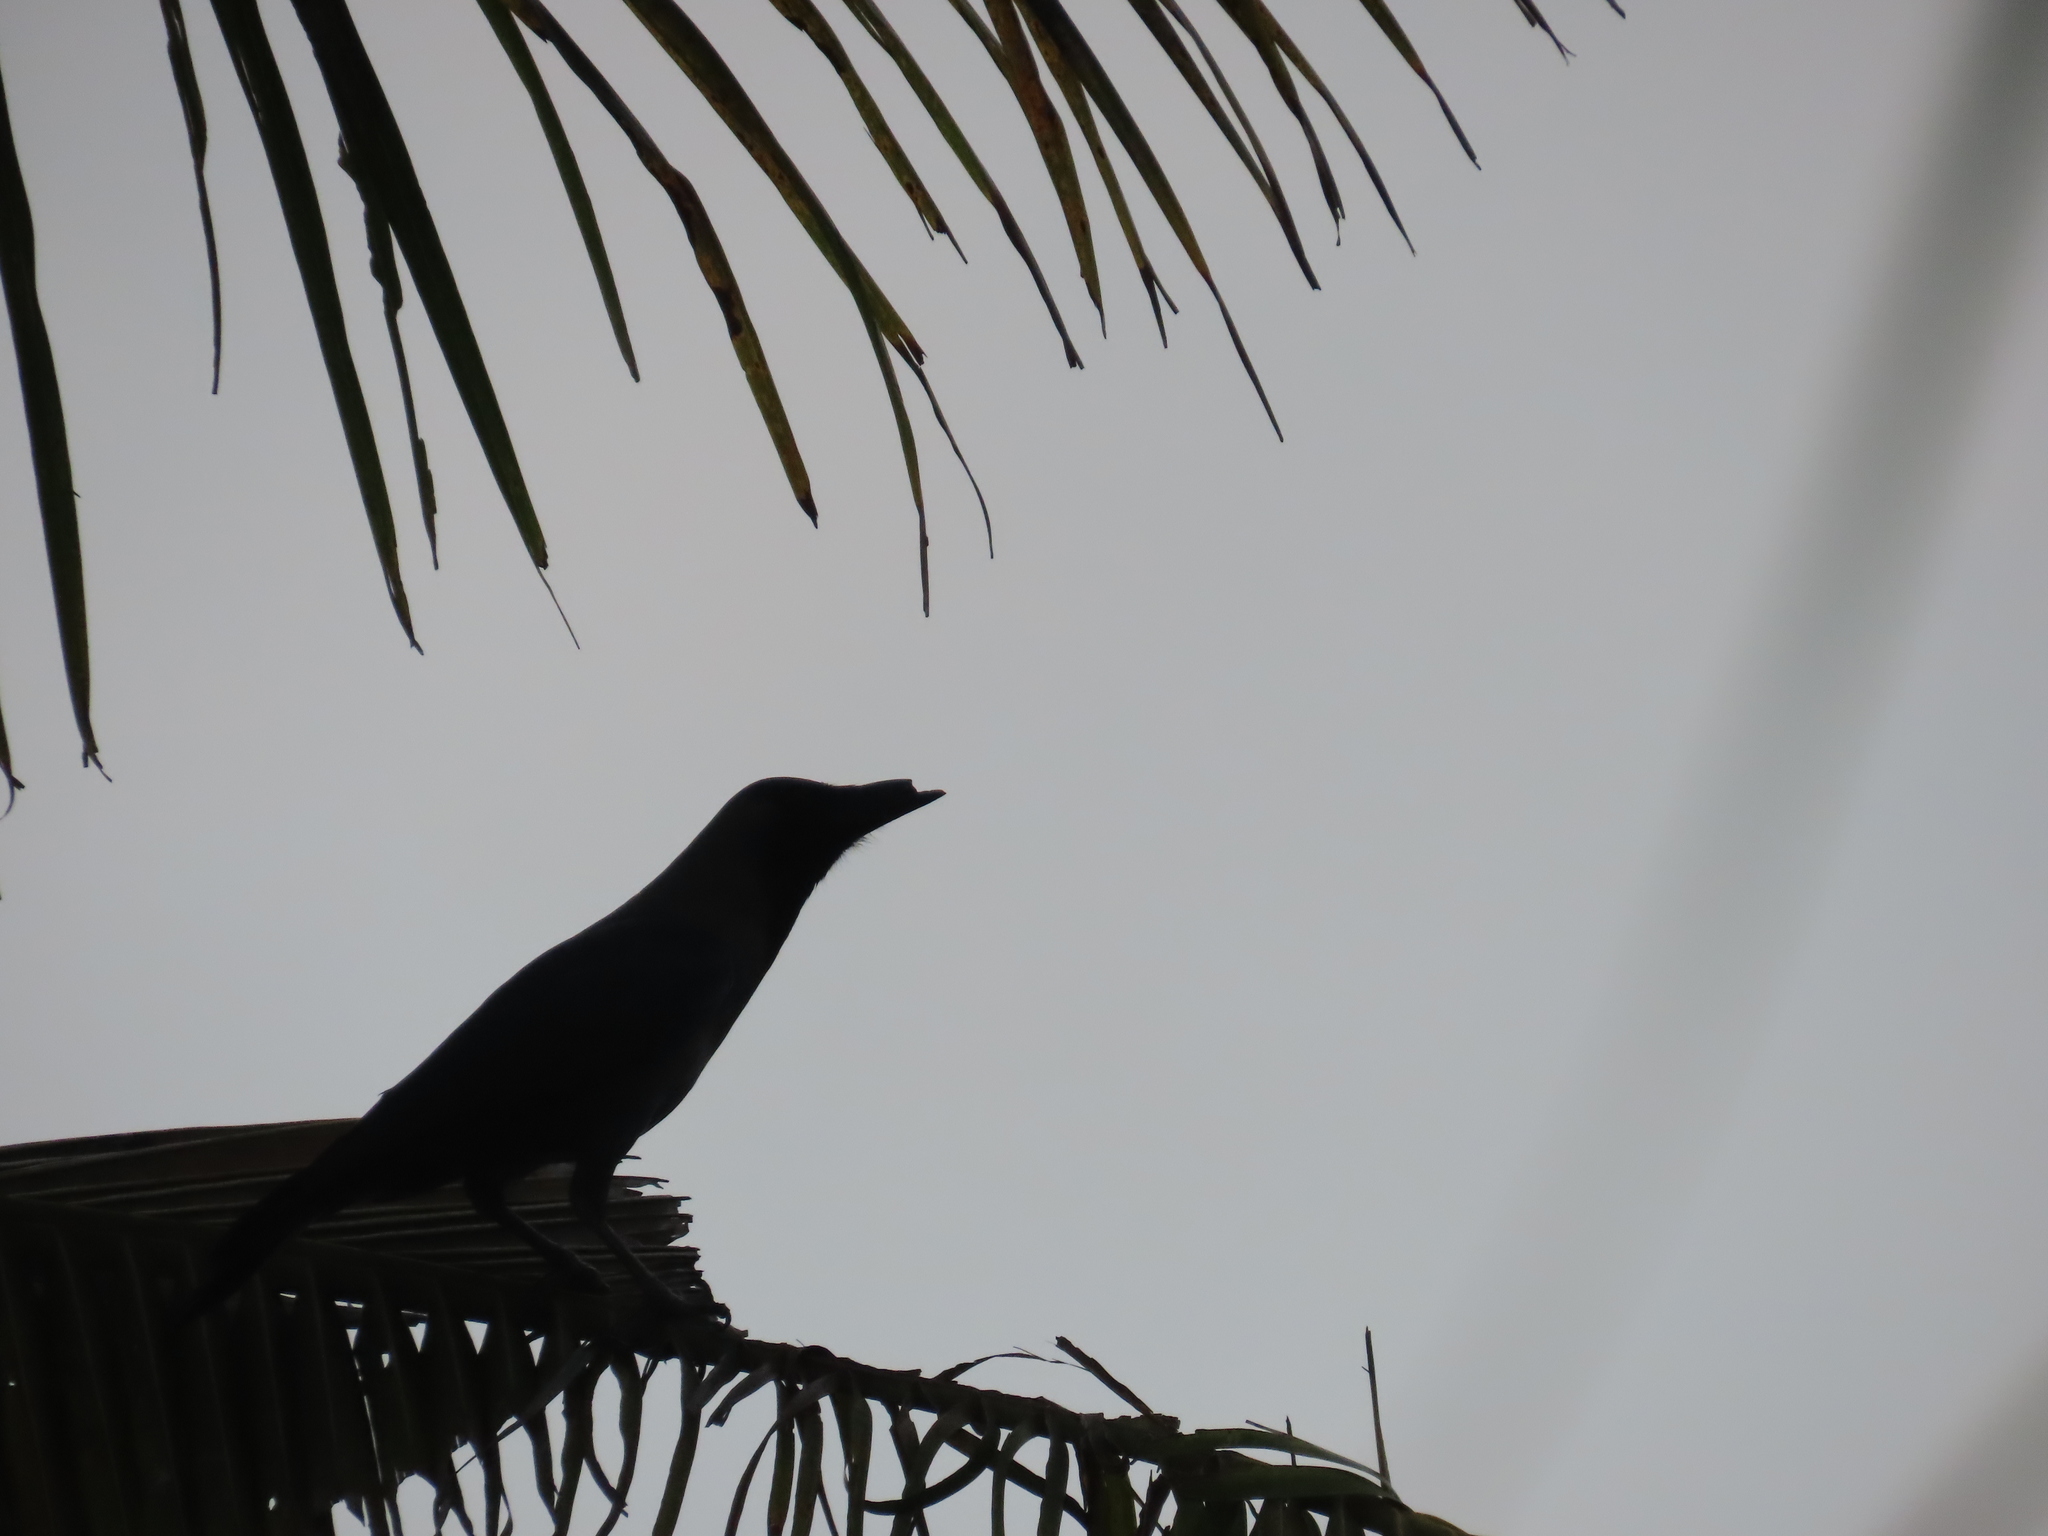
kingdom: Animalia
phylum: Chordata
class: Aves
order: Passeriformes
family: Corvidae
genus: Corvus
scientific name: Corvus splendens
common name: House crow
